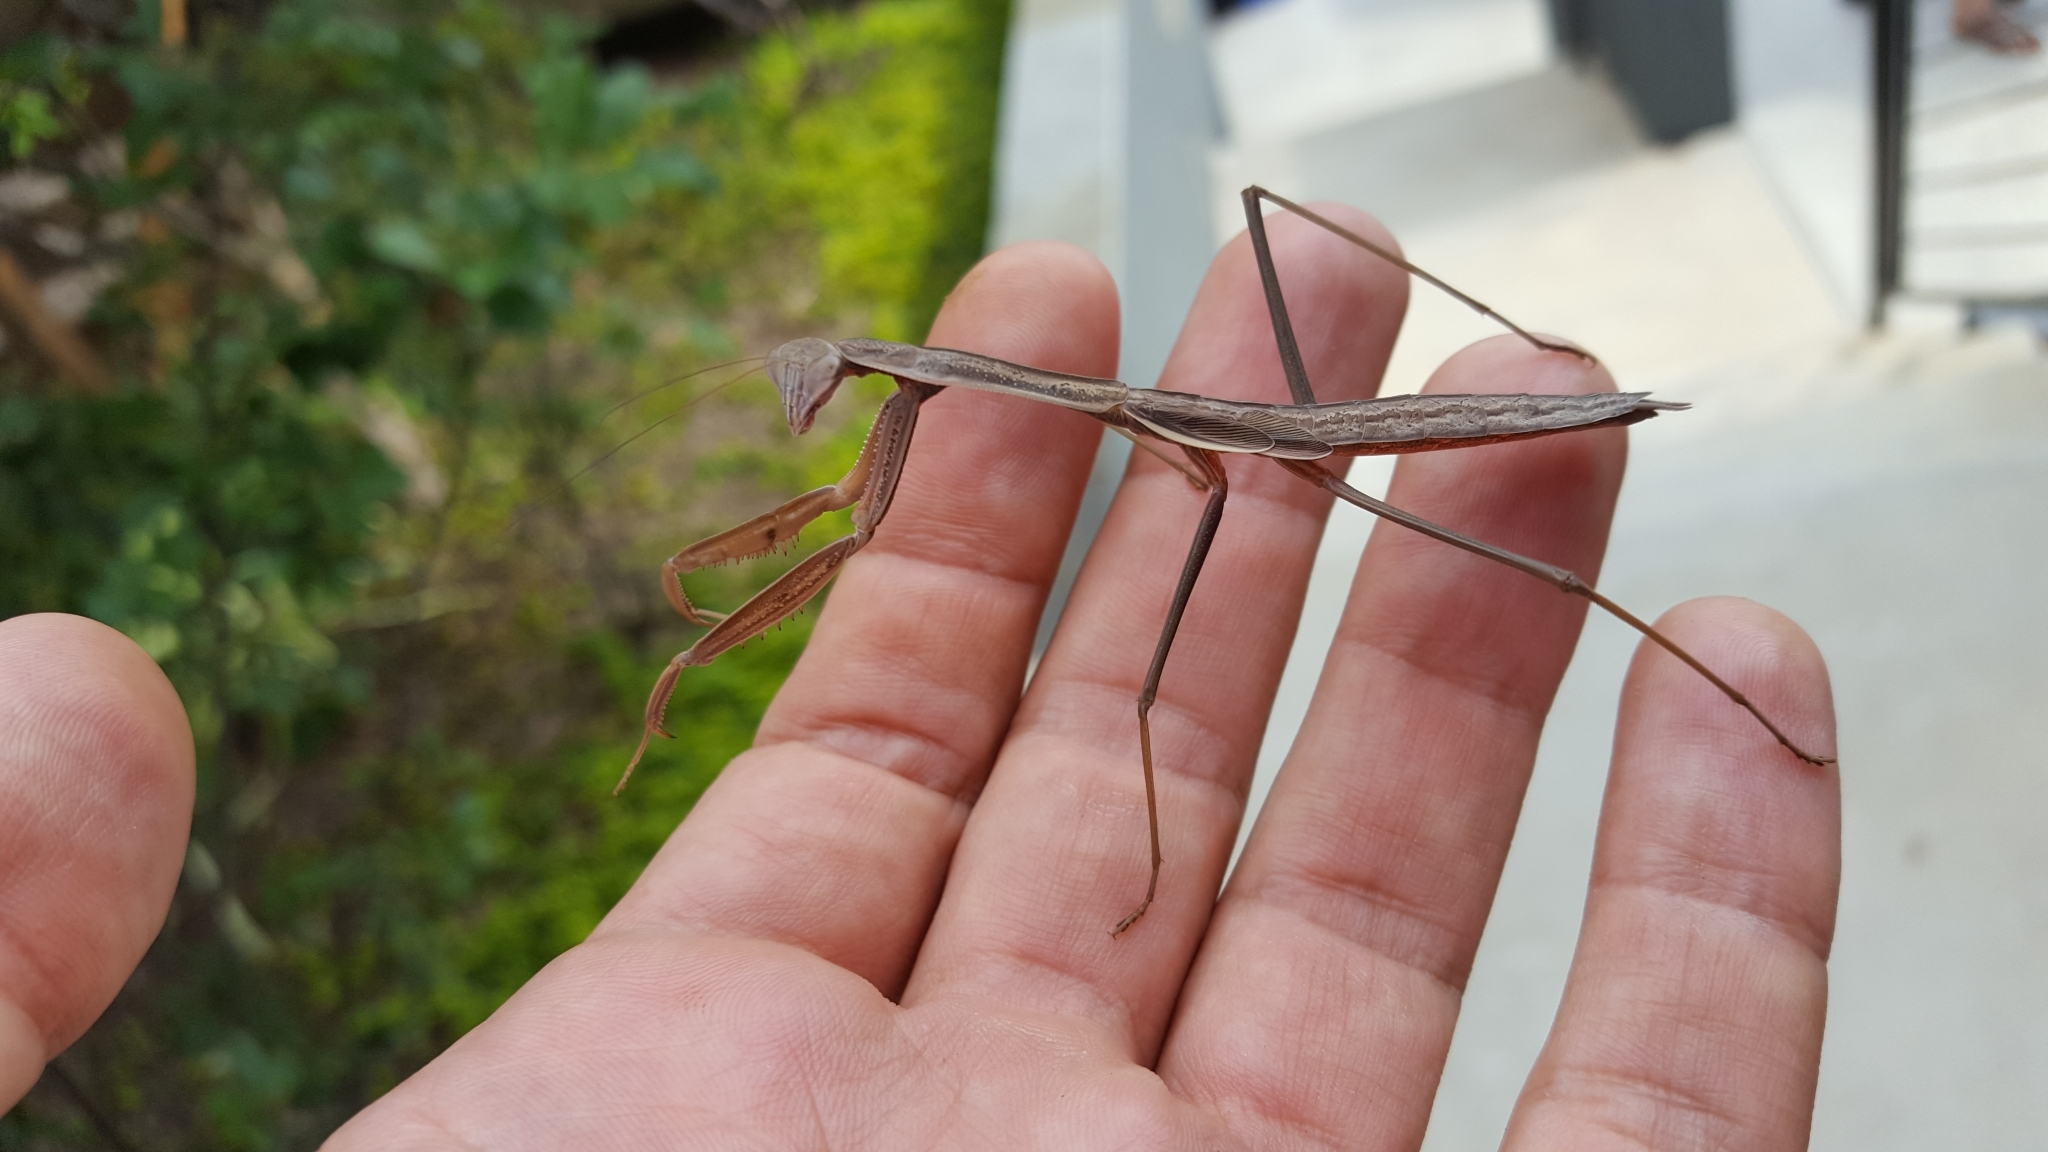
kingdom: Animalia
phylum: Arthropoda
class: Insecta
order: Mantodea
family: Mantidae
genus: Tenodera
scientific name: Tenodera sinensis
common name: Chinese mantis
